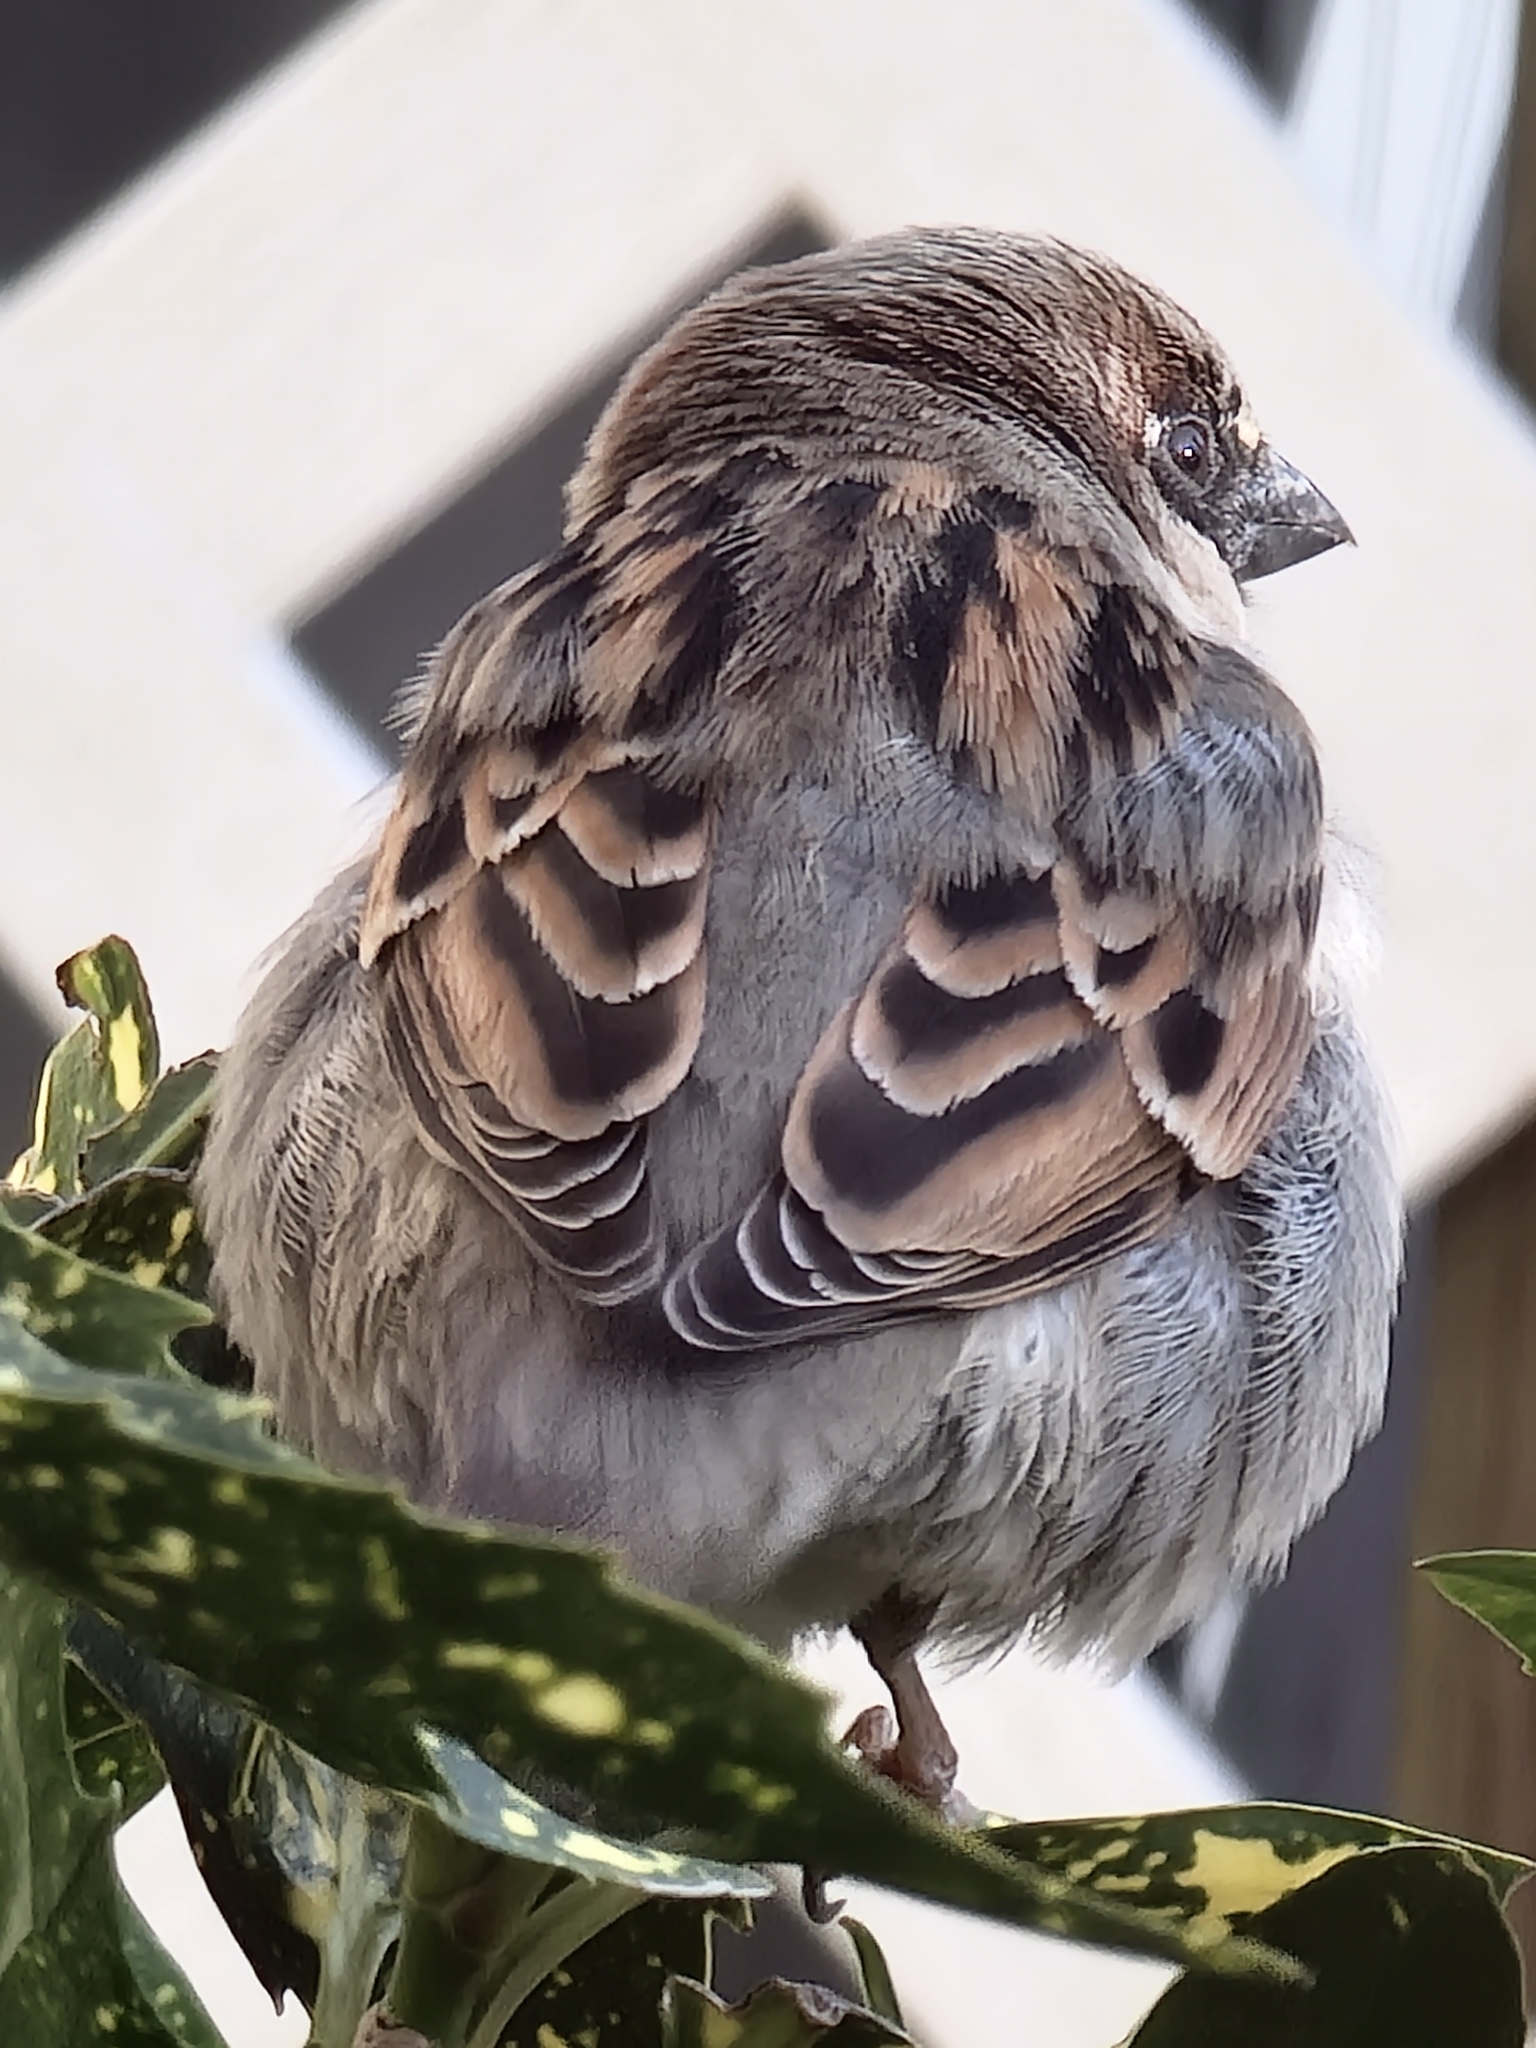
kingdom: Animalia
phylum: Chordata
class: Aves
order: Passeriformes
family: Passeridae
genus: Passer
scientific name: Passer domesticus
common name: House sparrow
